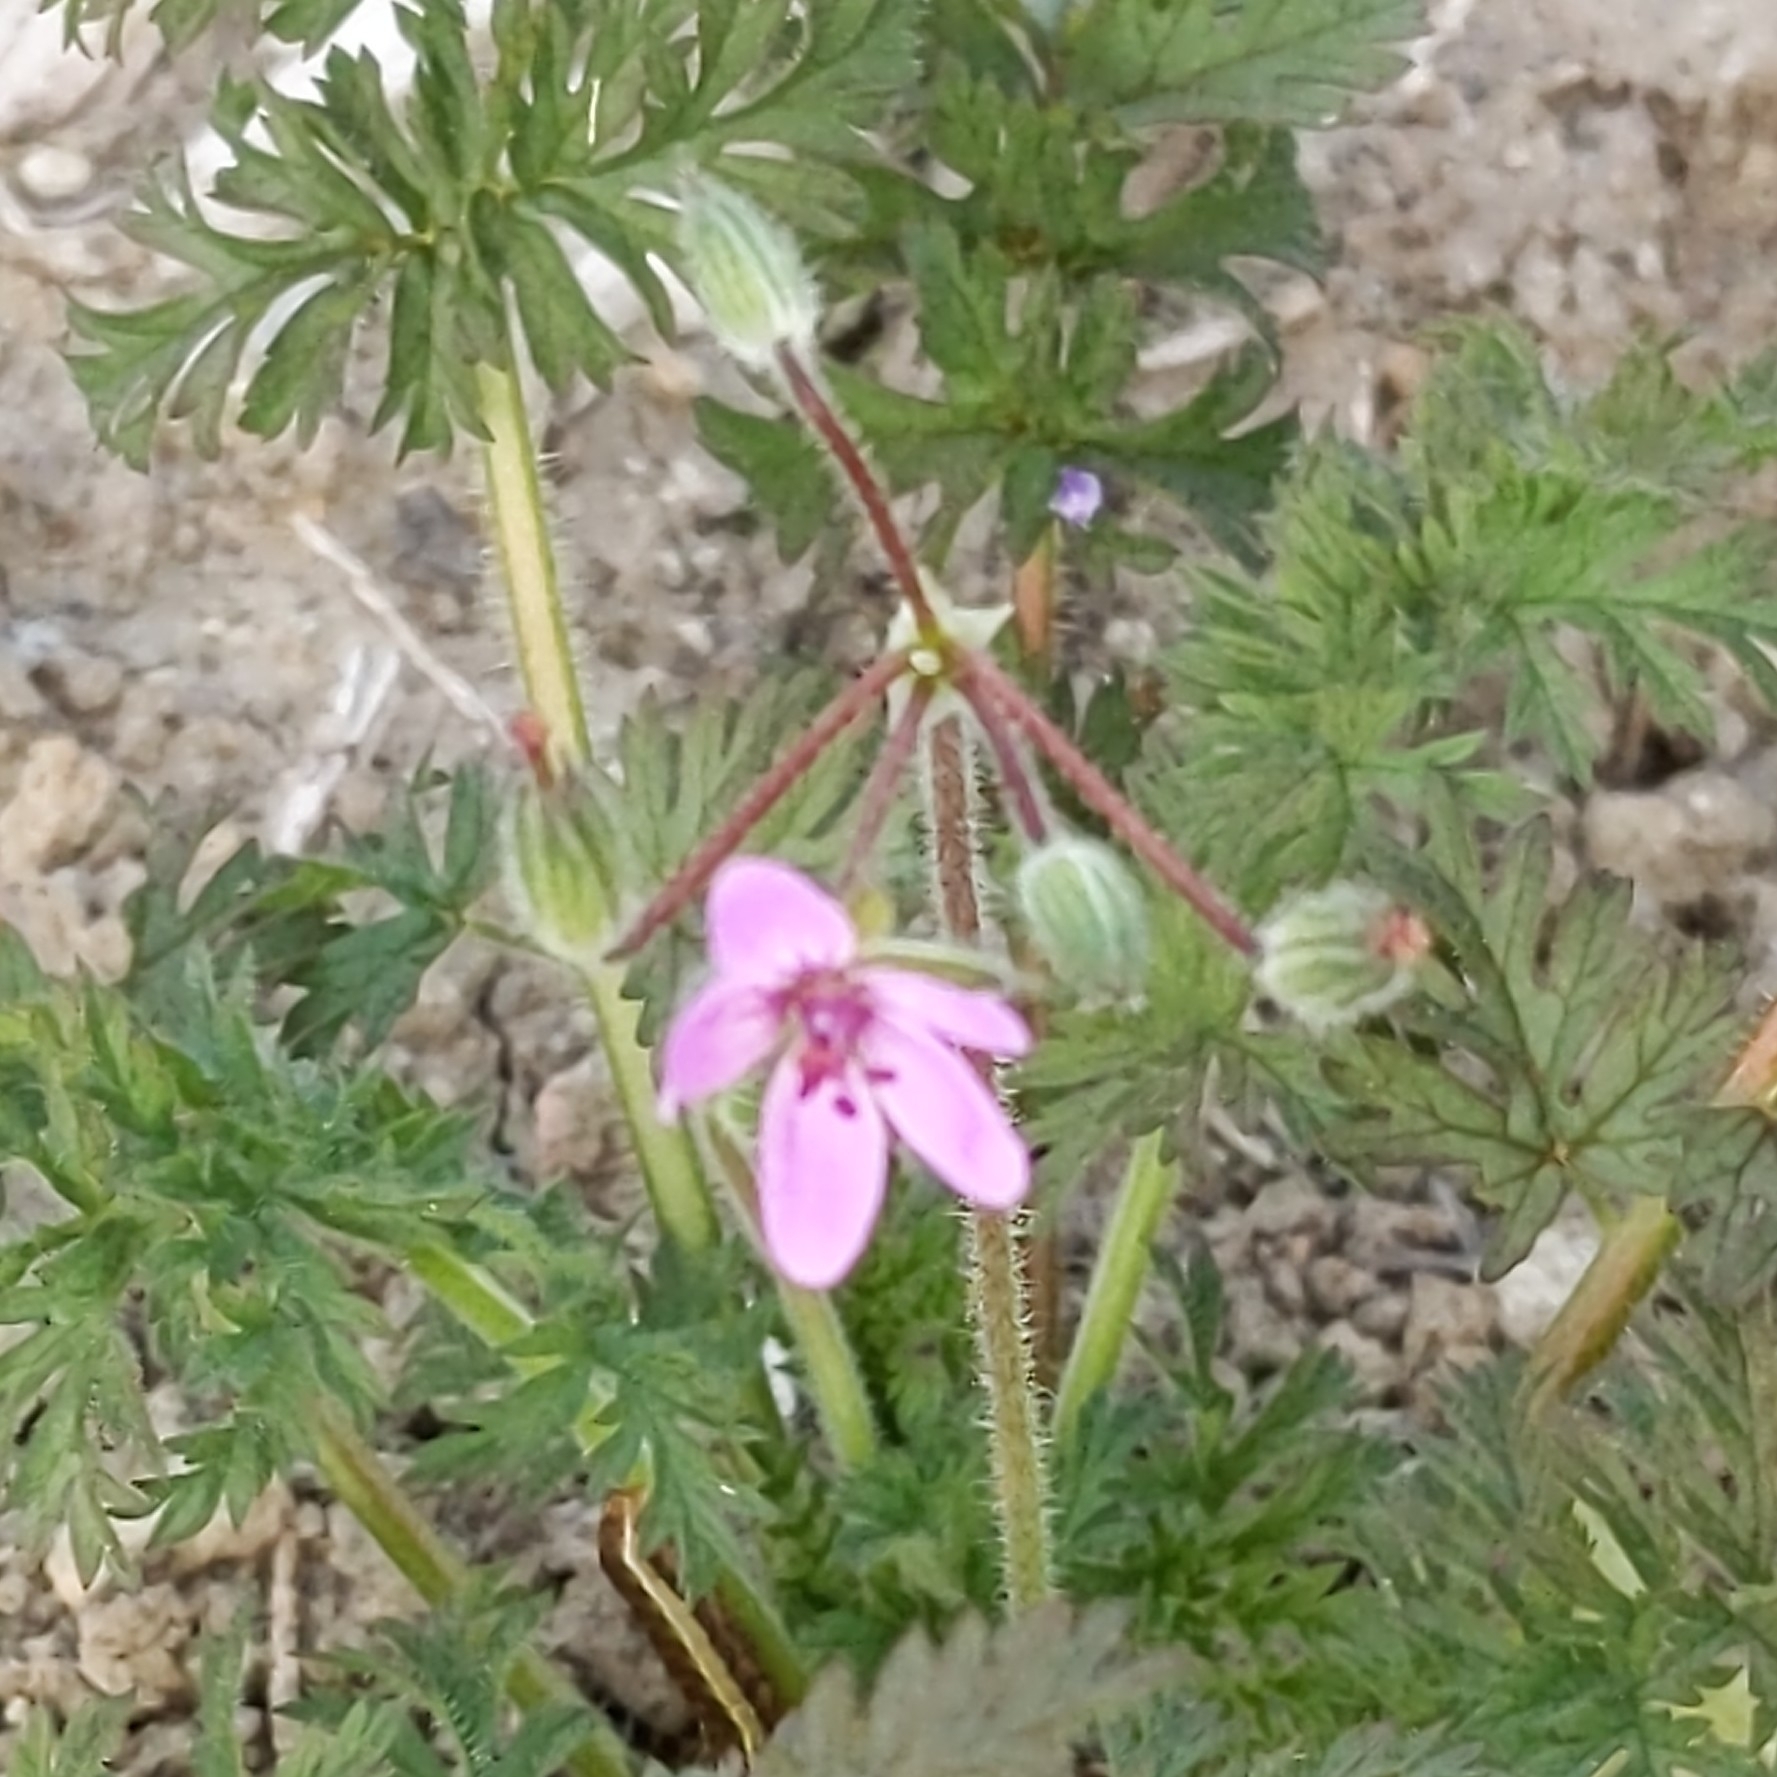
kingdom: Plantae
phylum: Tracheophyta
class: Magnoliopsida
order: Geraniales
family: Geraniaceae
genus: Erodium
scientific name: Erodium cicutarium
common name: Common stork's-bill
